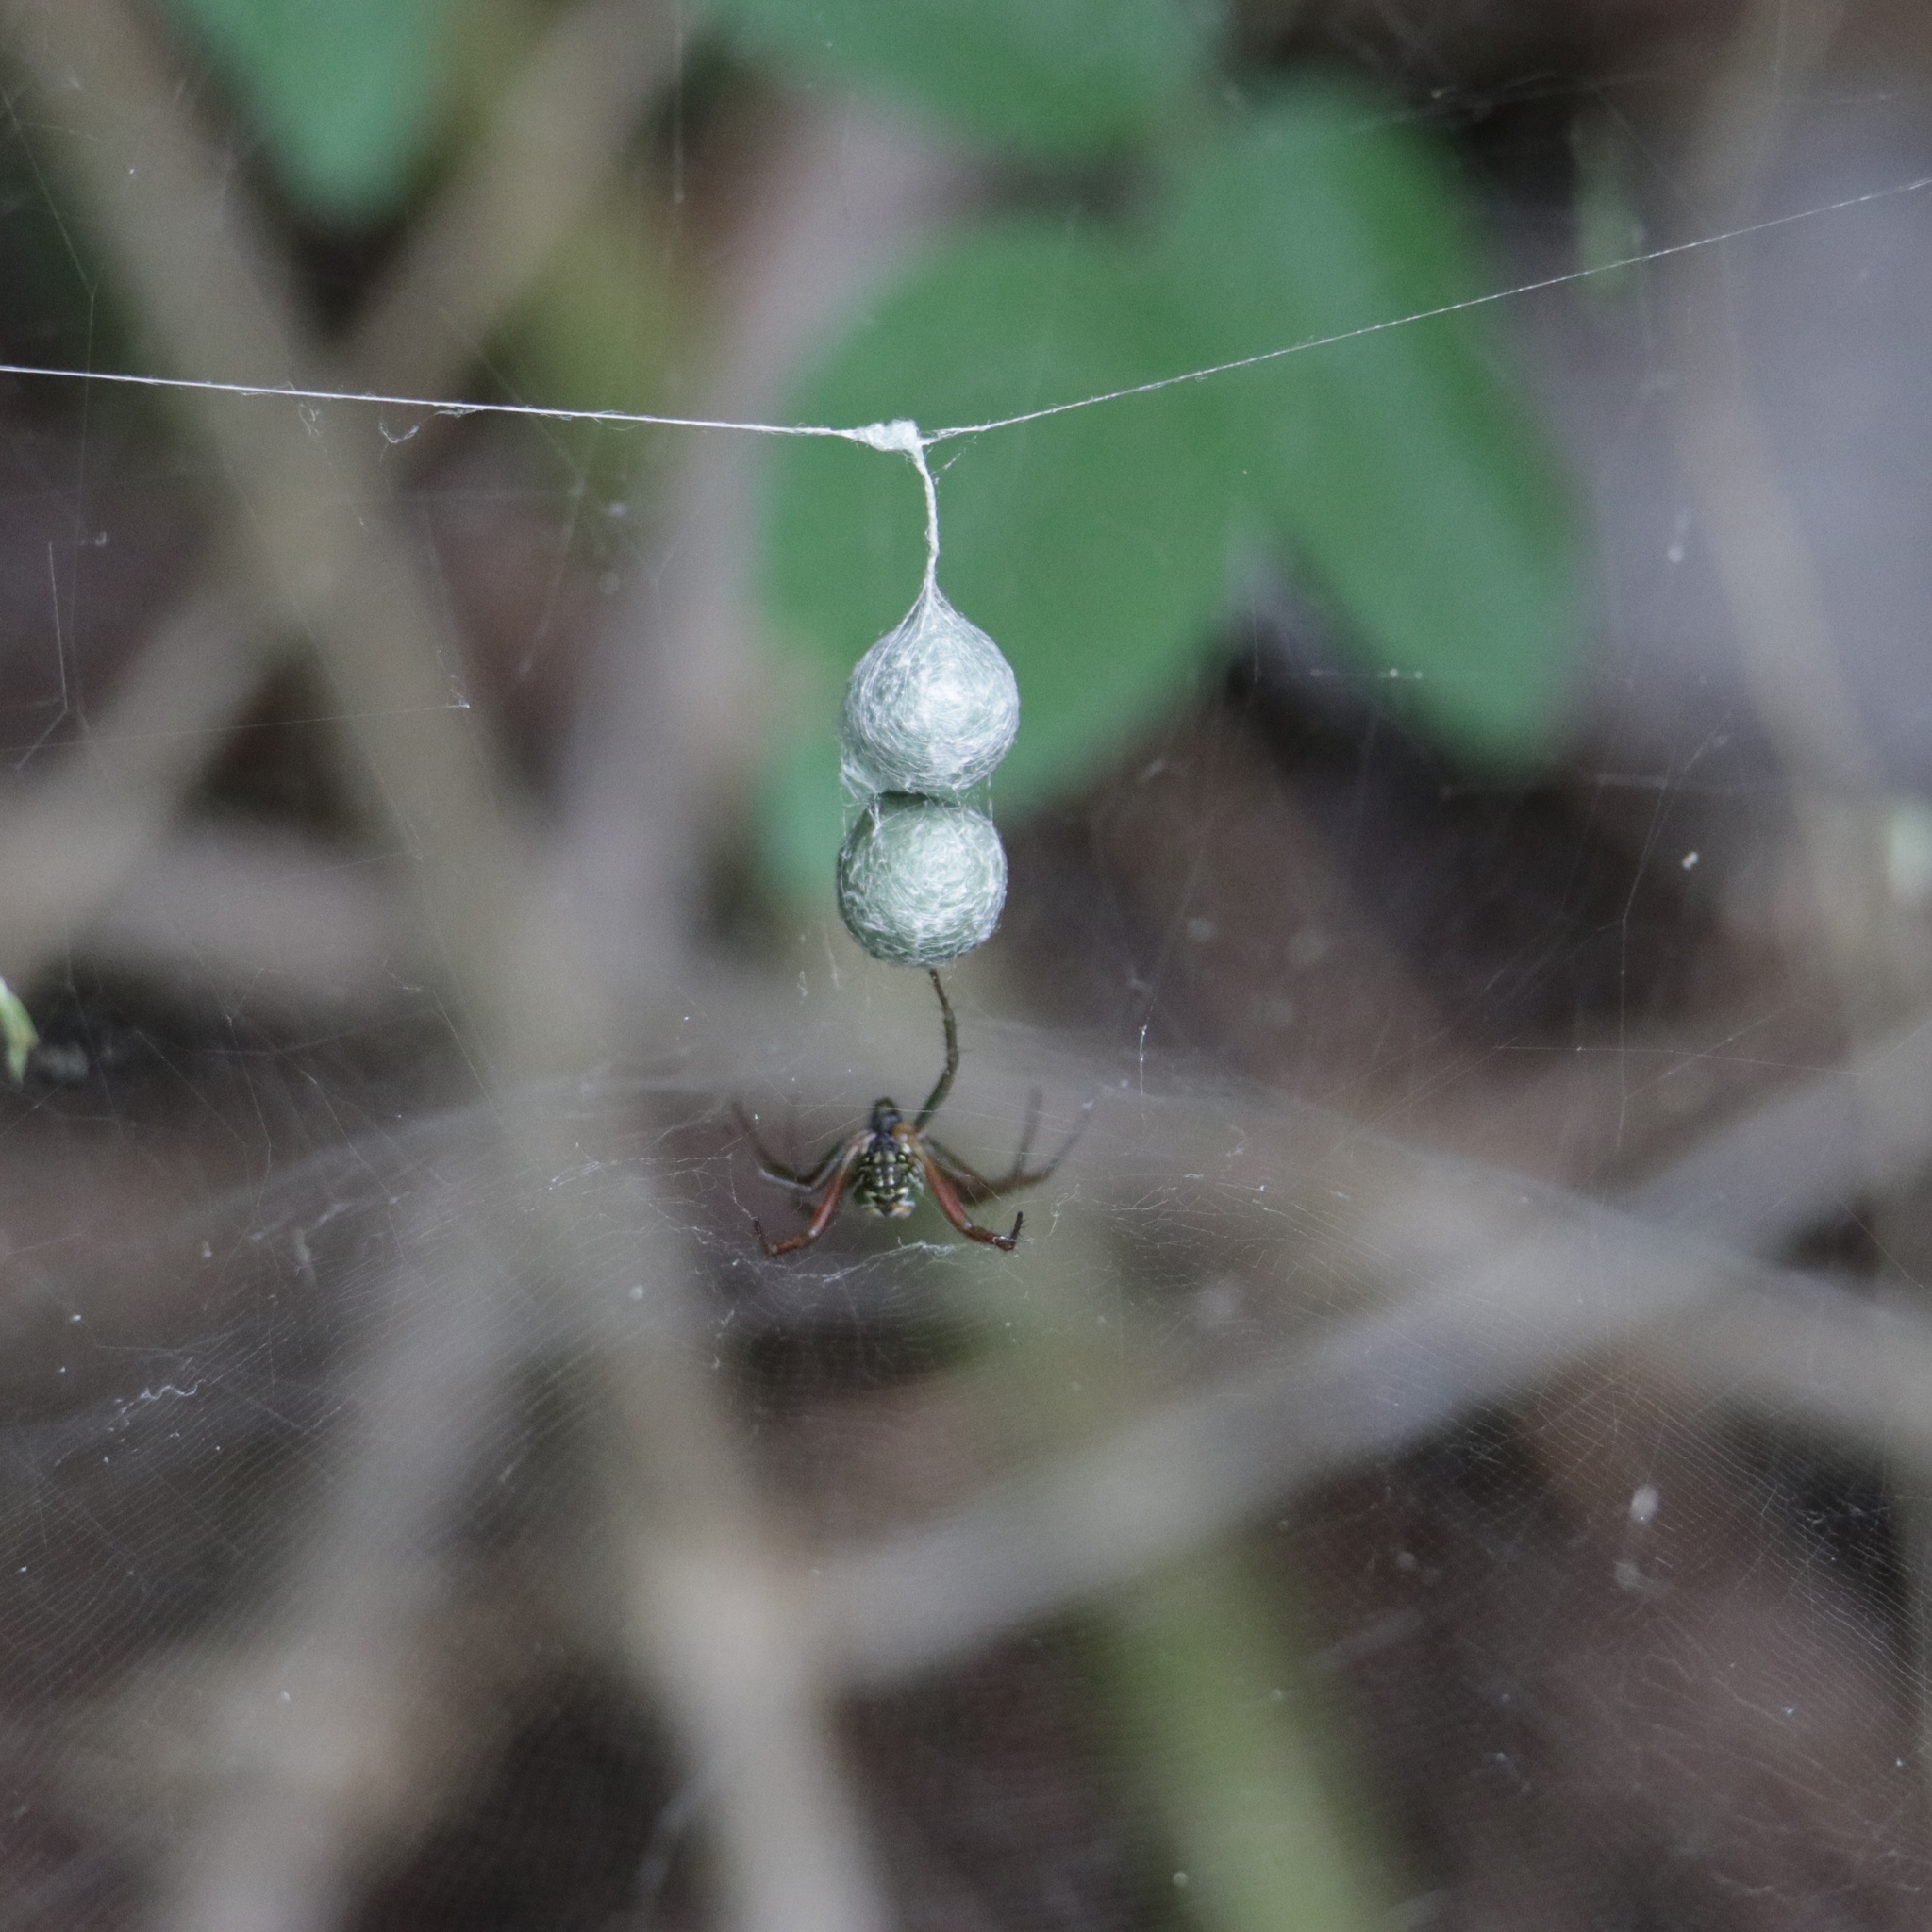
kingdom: Animalia
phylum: Arthropoda
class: Arachnida
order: Araneae
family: Araneidae
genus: Mecynogea
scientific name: Mecynogea lemniscata
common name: Orb weavers
